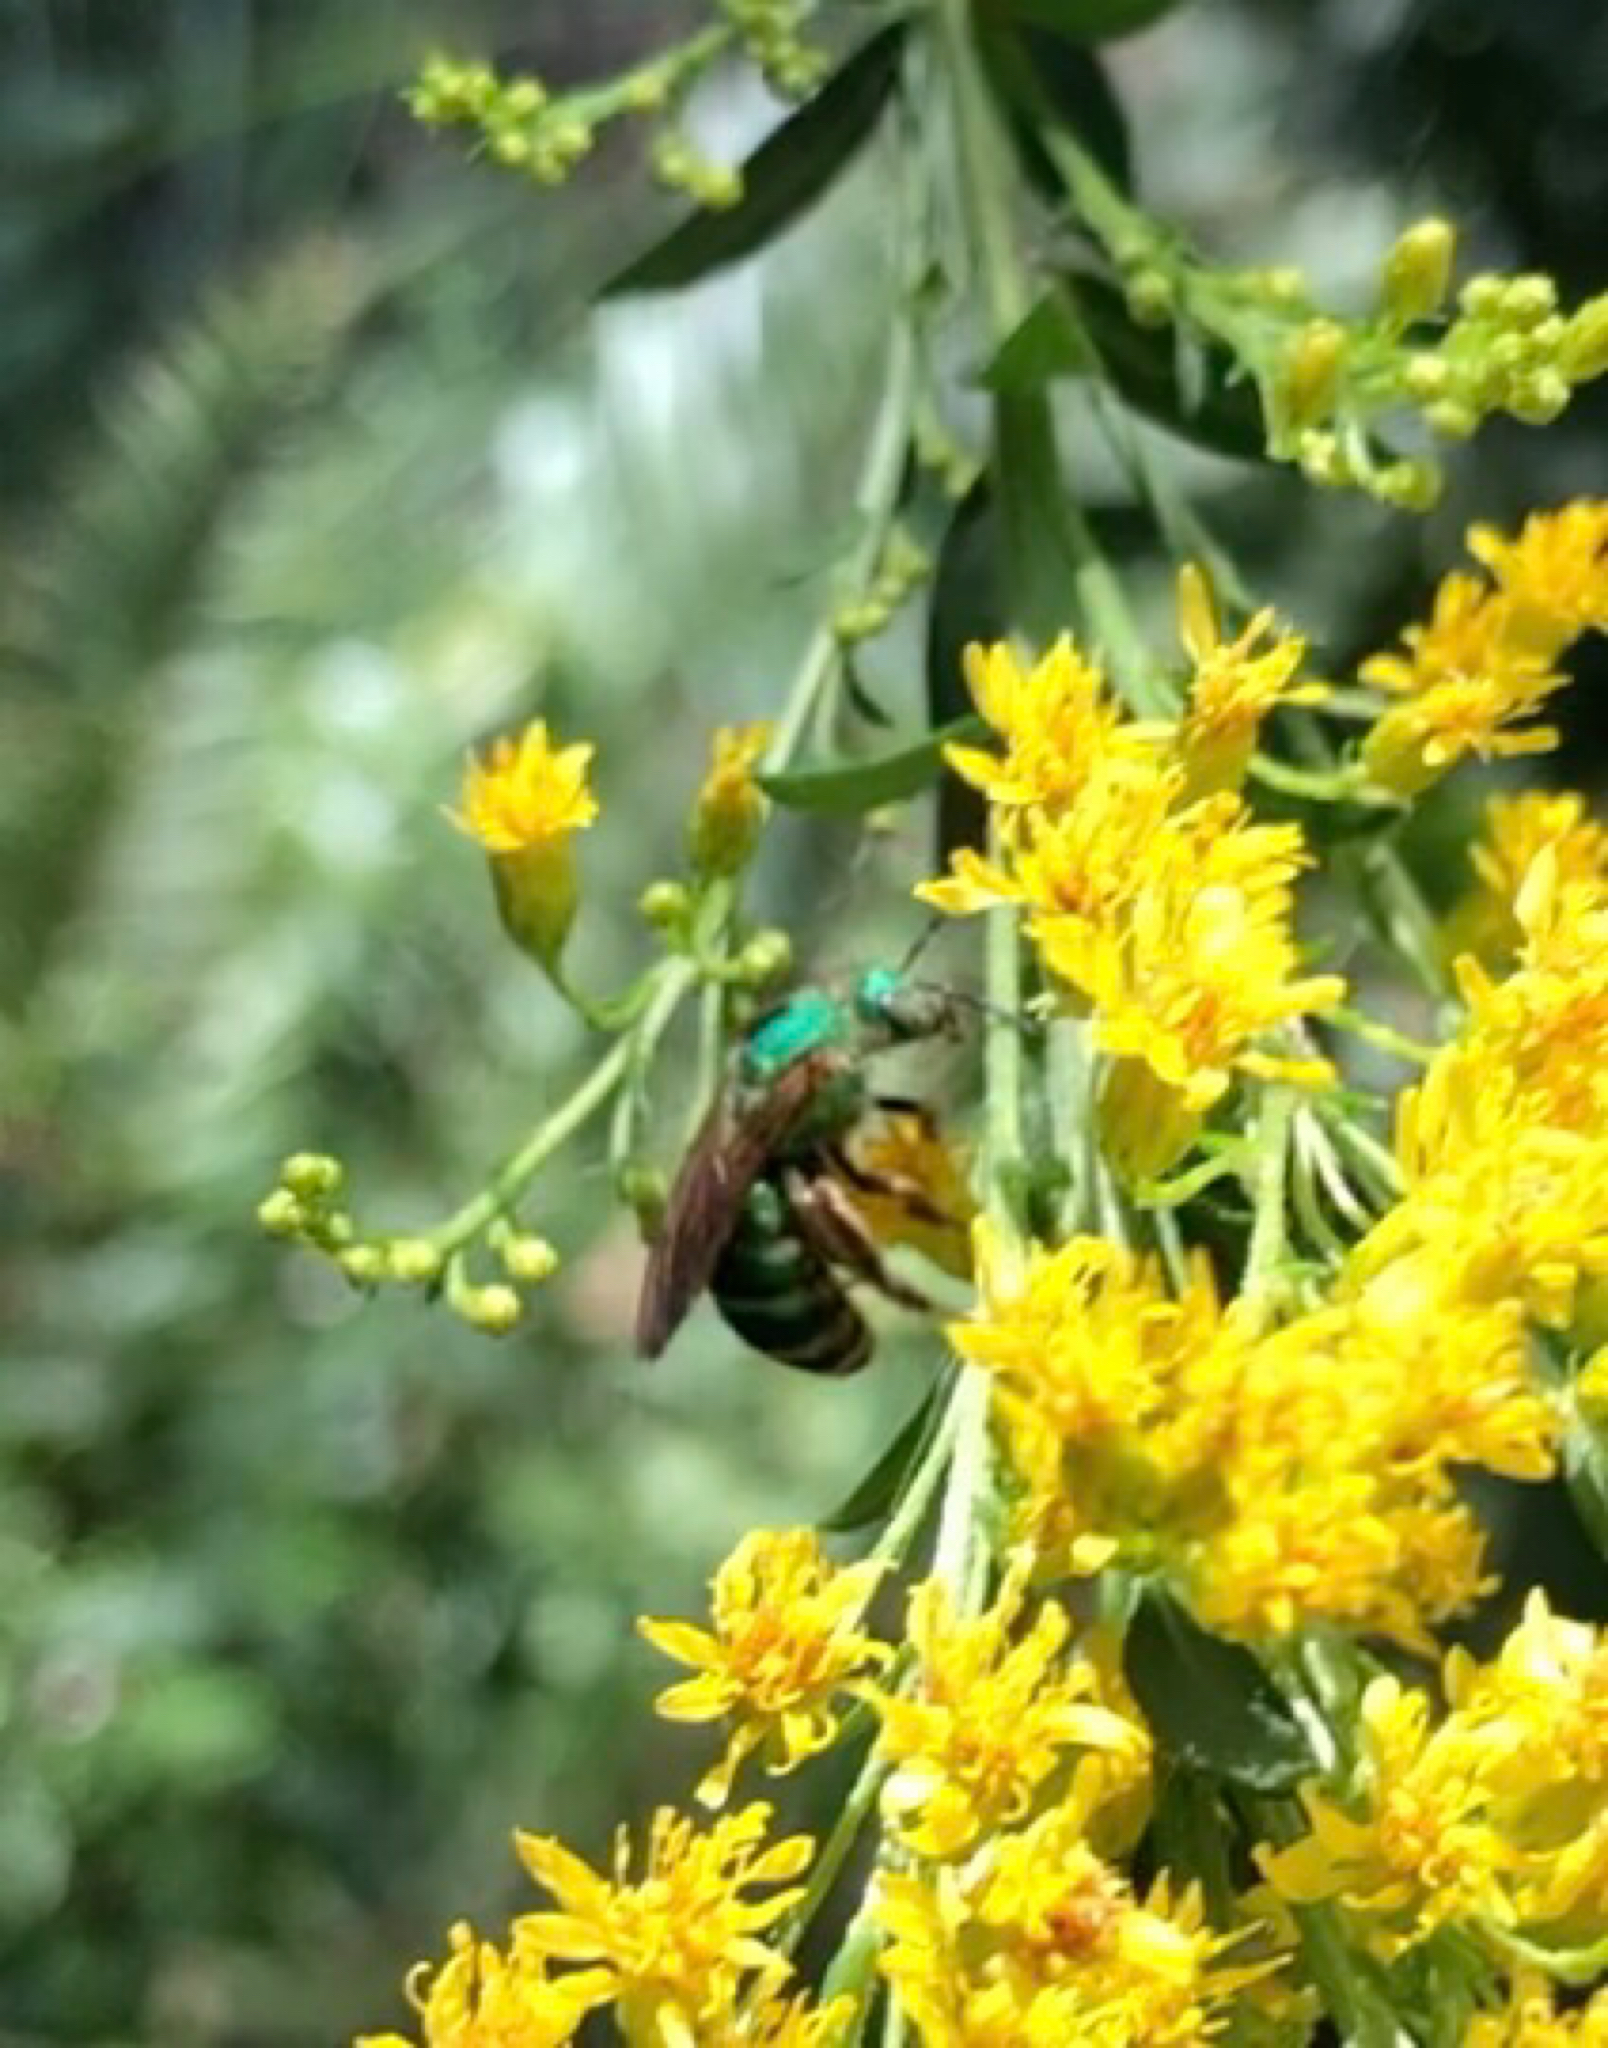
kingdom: Animalia
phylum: Arthropoda
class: Insecta
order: Hymenoptera
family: Halictidae
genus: Agapostemon
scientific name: Agapostemon splendens
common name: Brown-winged striped sweat bee
